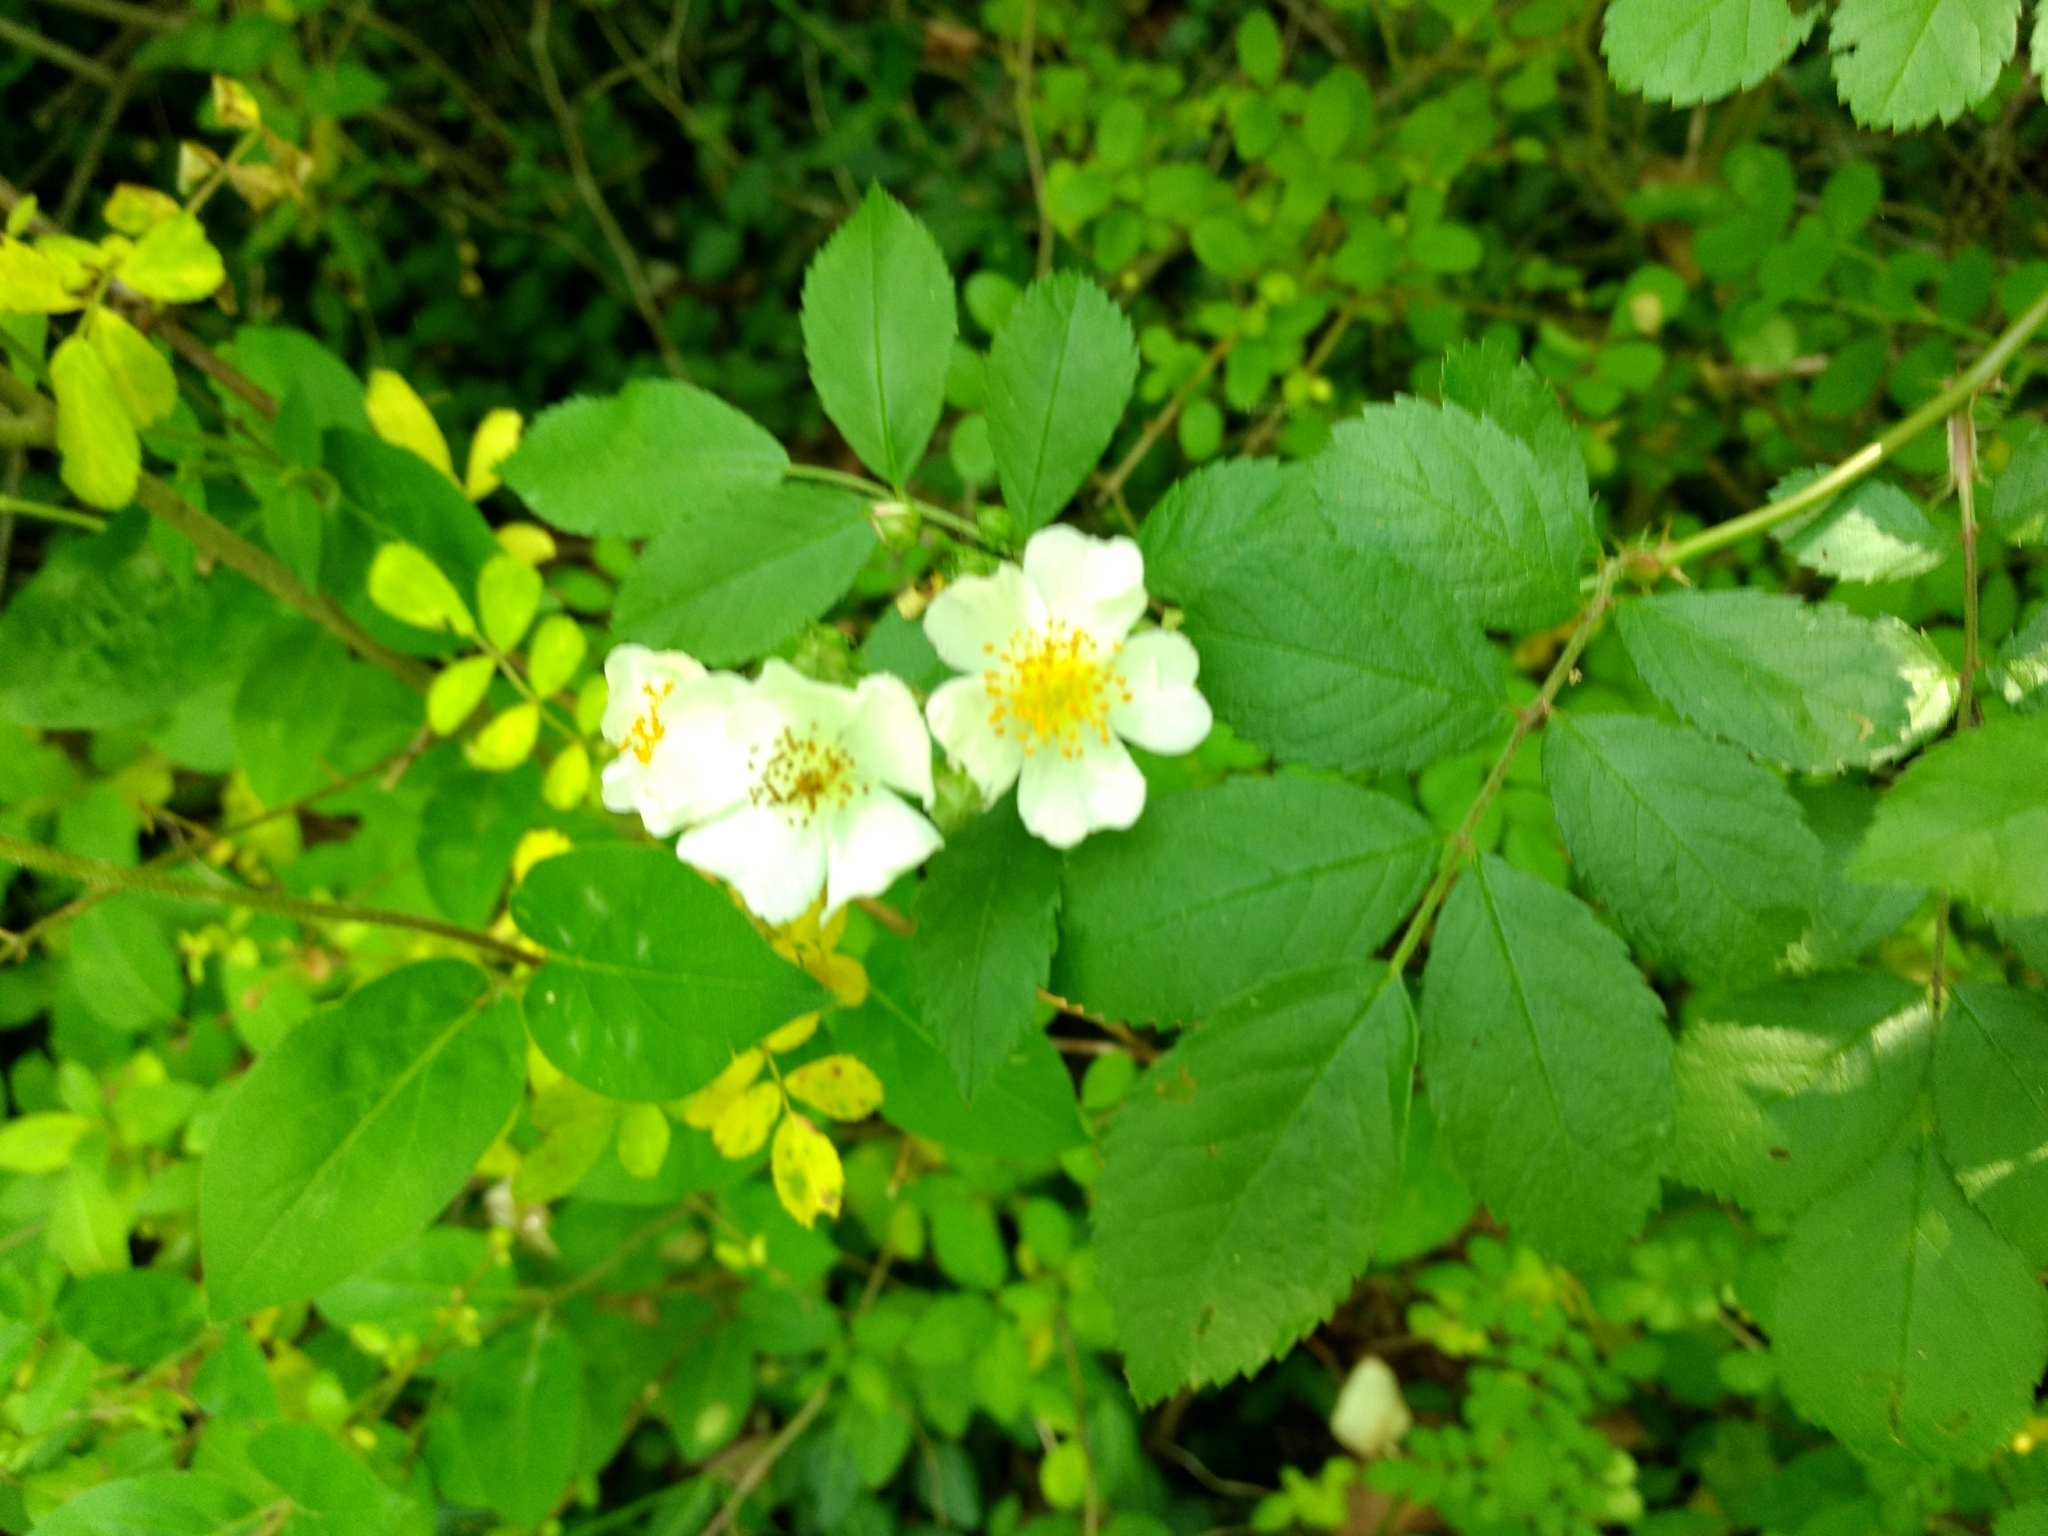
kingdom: Plantae
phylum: Tracheophyta
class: Magnoliopsida
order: Rosales
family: Rosaceae
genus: Rosa
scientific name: Rosa multiflora
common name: Multiflora rose
